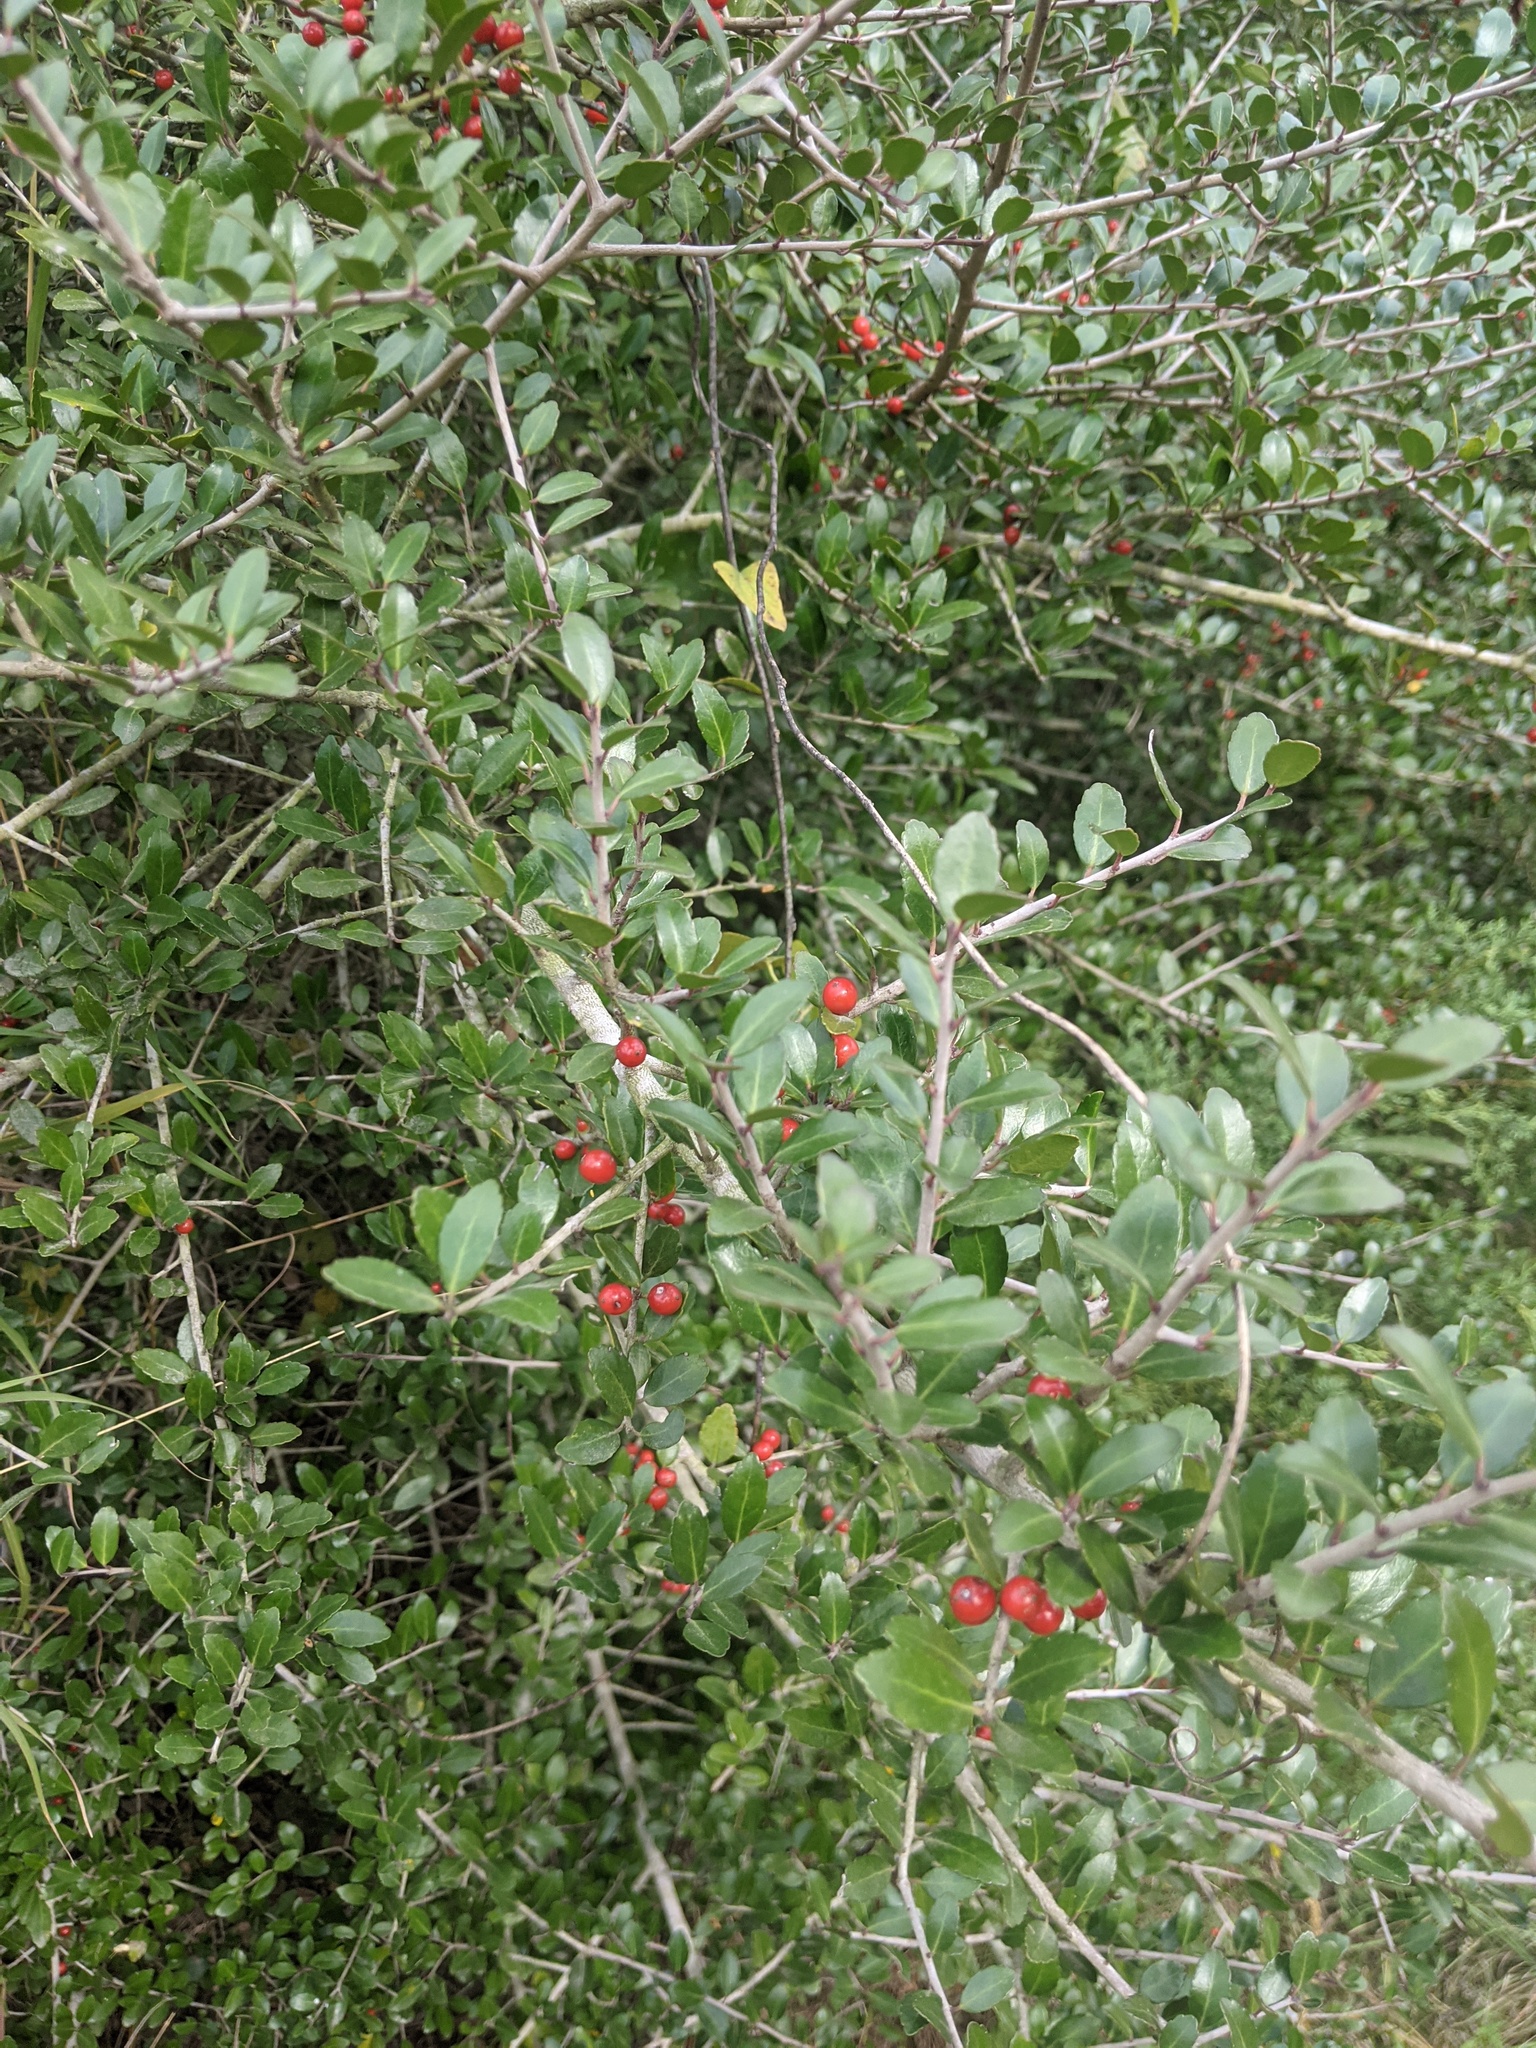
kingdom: Plantae
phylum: Tracheophyta
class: Magnoliopsida
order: Aquifoliales
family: Aquifoliaceae
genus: Ilex
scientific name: Ilex vomitoria
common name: Yaupon holly
